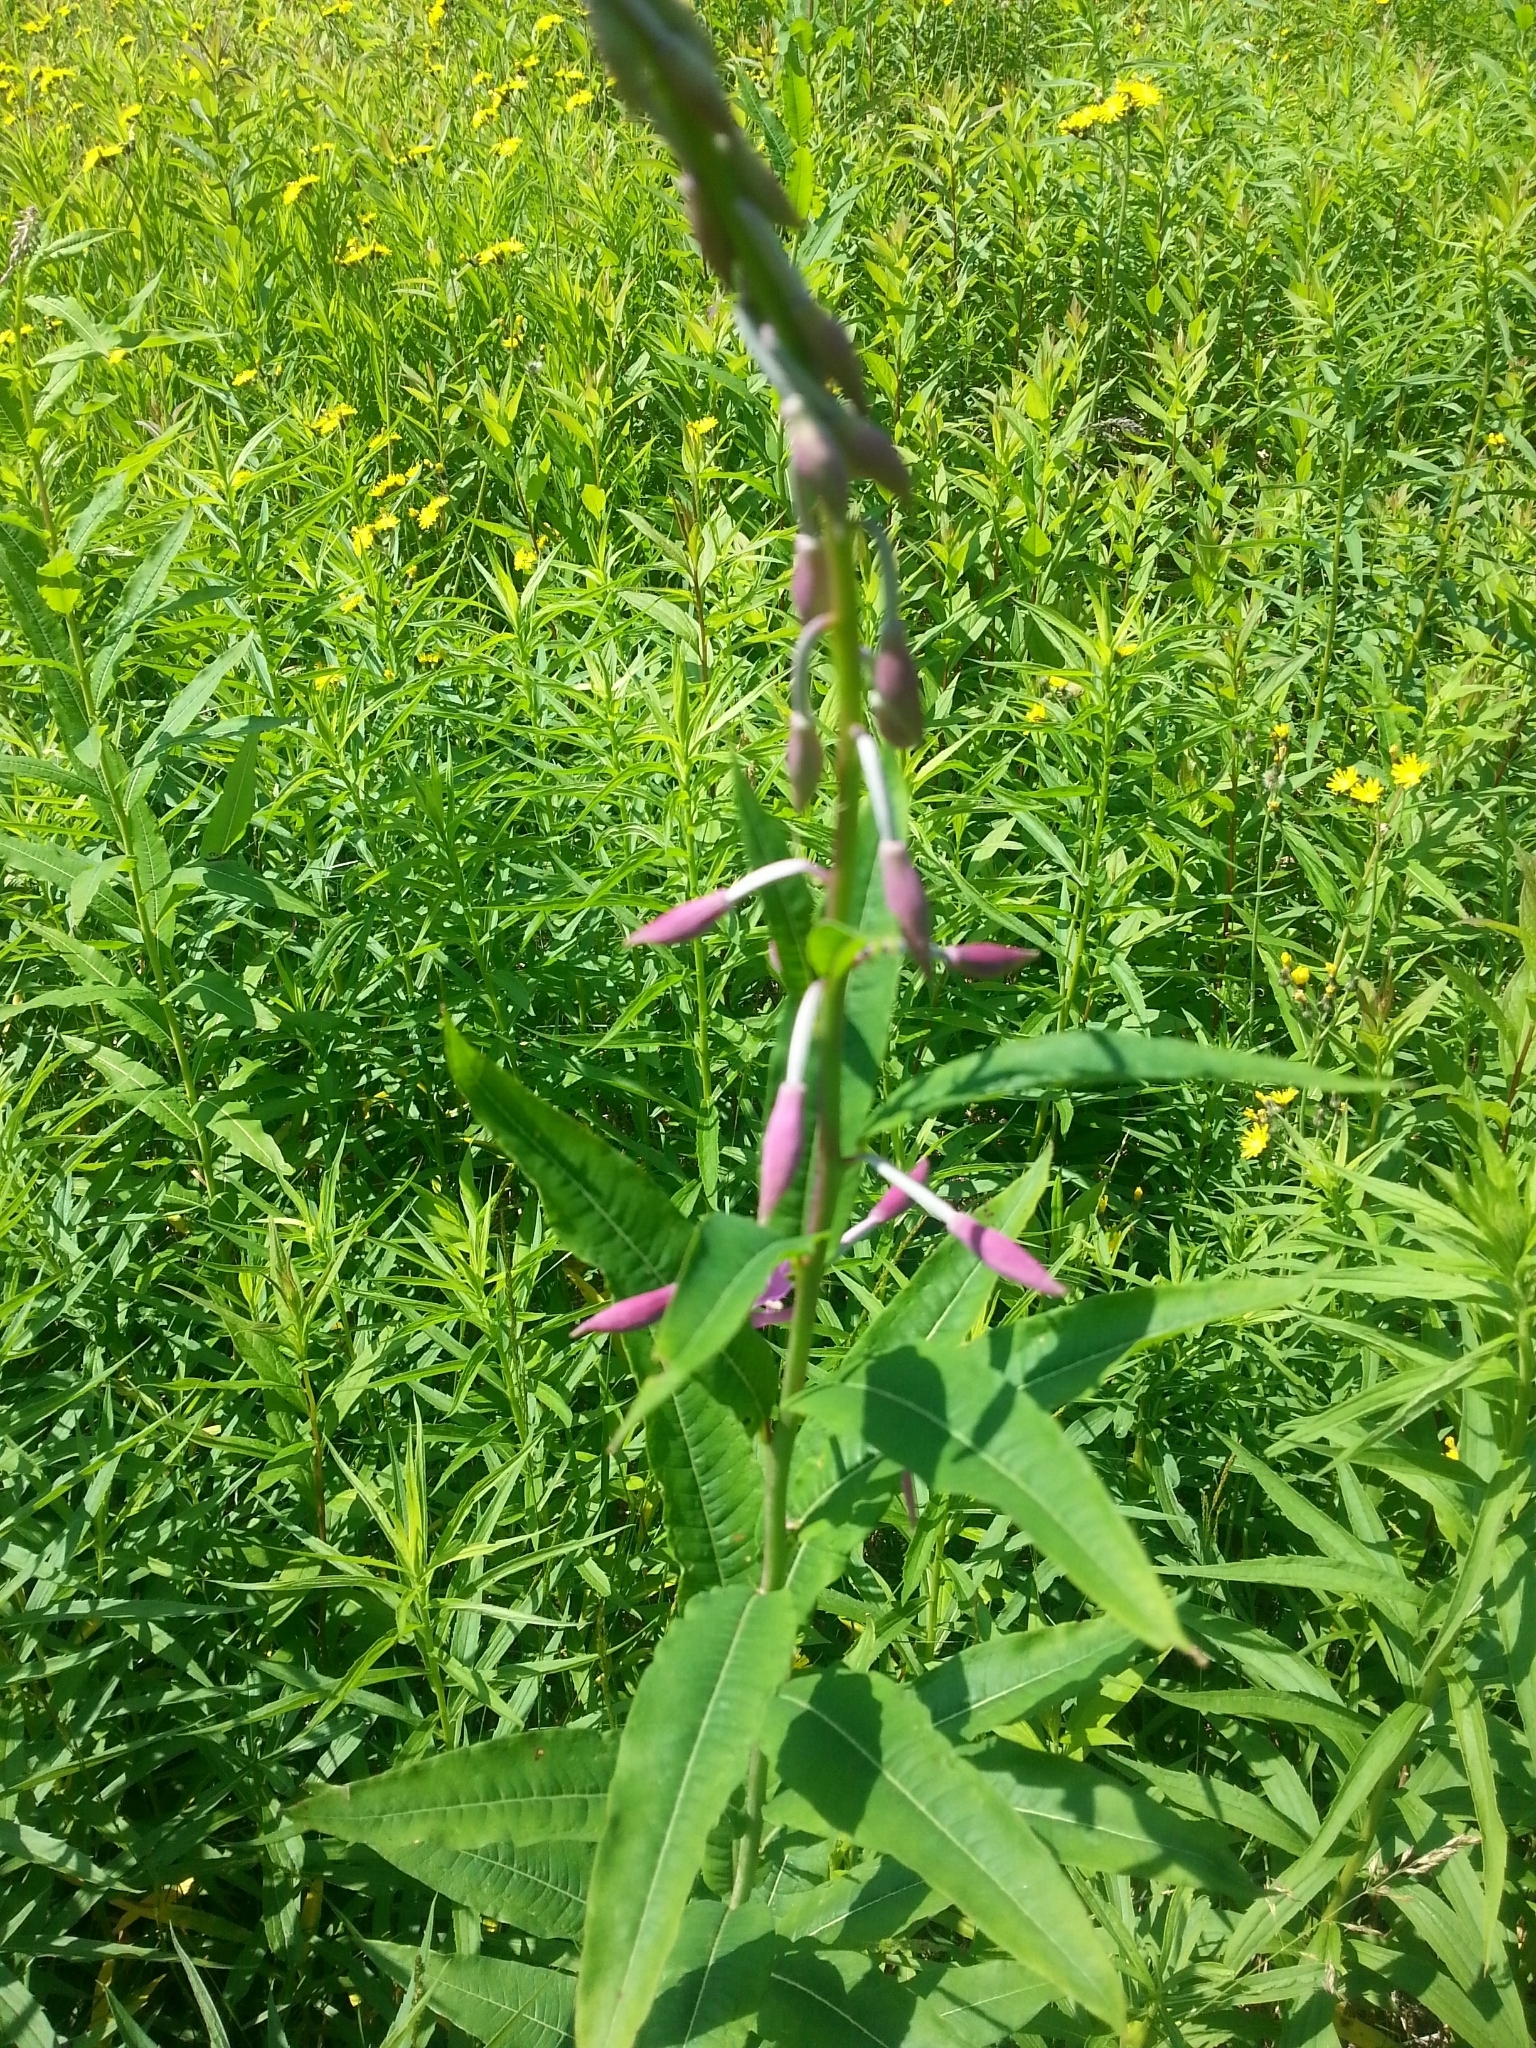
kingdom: Plantae
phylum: Tracheophyta
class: Magnoliopsida
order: Myrtales
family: Onagraceae
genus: Chamaenerion
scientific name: Chamaenerion angustifolium
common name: Fireweed
